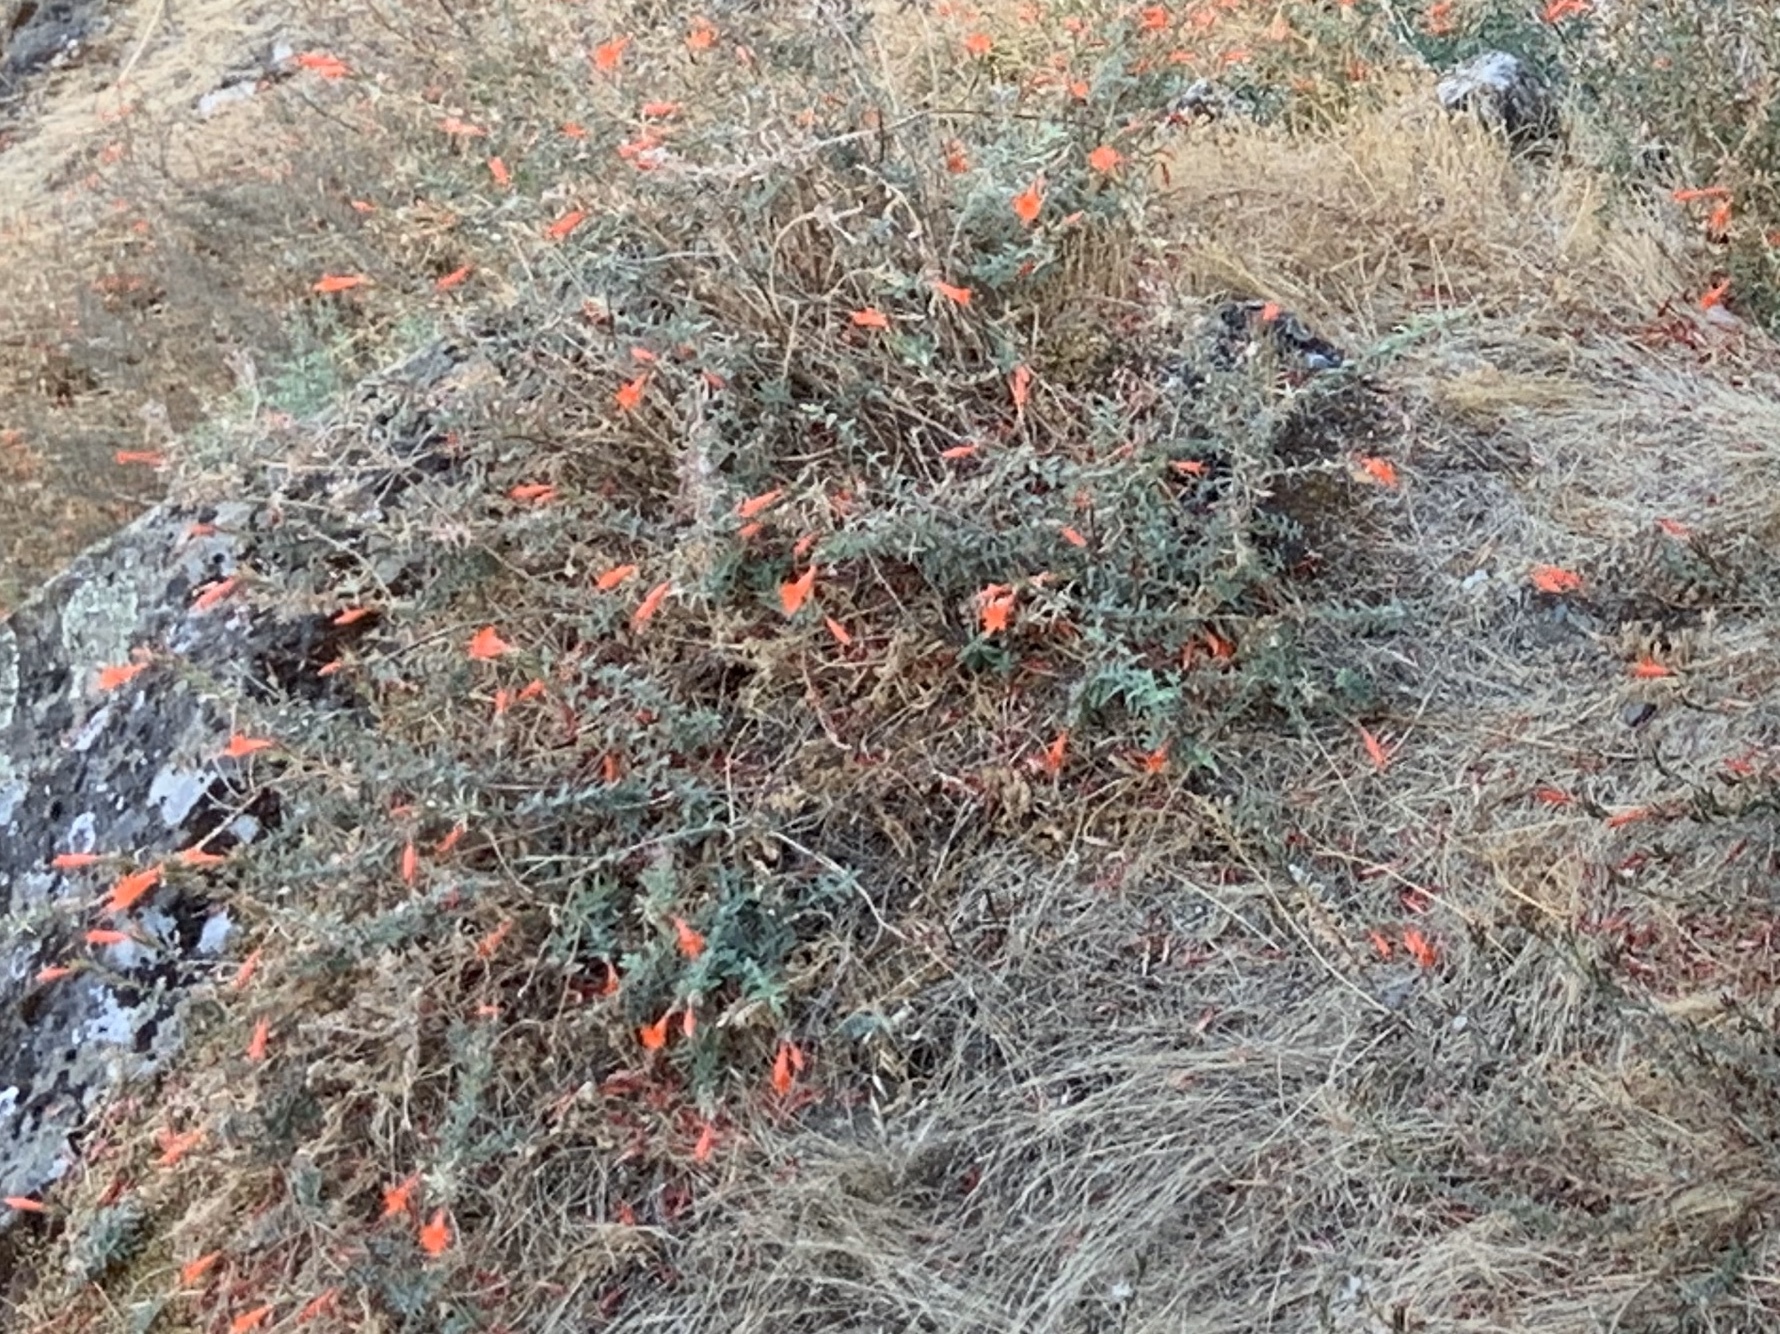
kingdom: Plantae
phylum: Tracheophyta
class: Magnoliopsida
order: Myrtales
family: Onagraceae
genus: Epilobium
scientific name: Epilobium canum
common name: California-fuchsia
